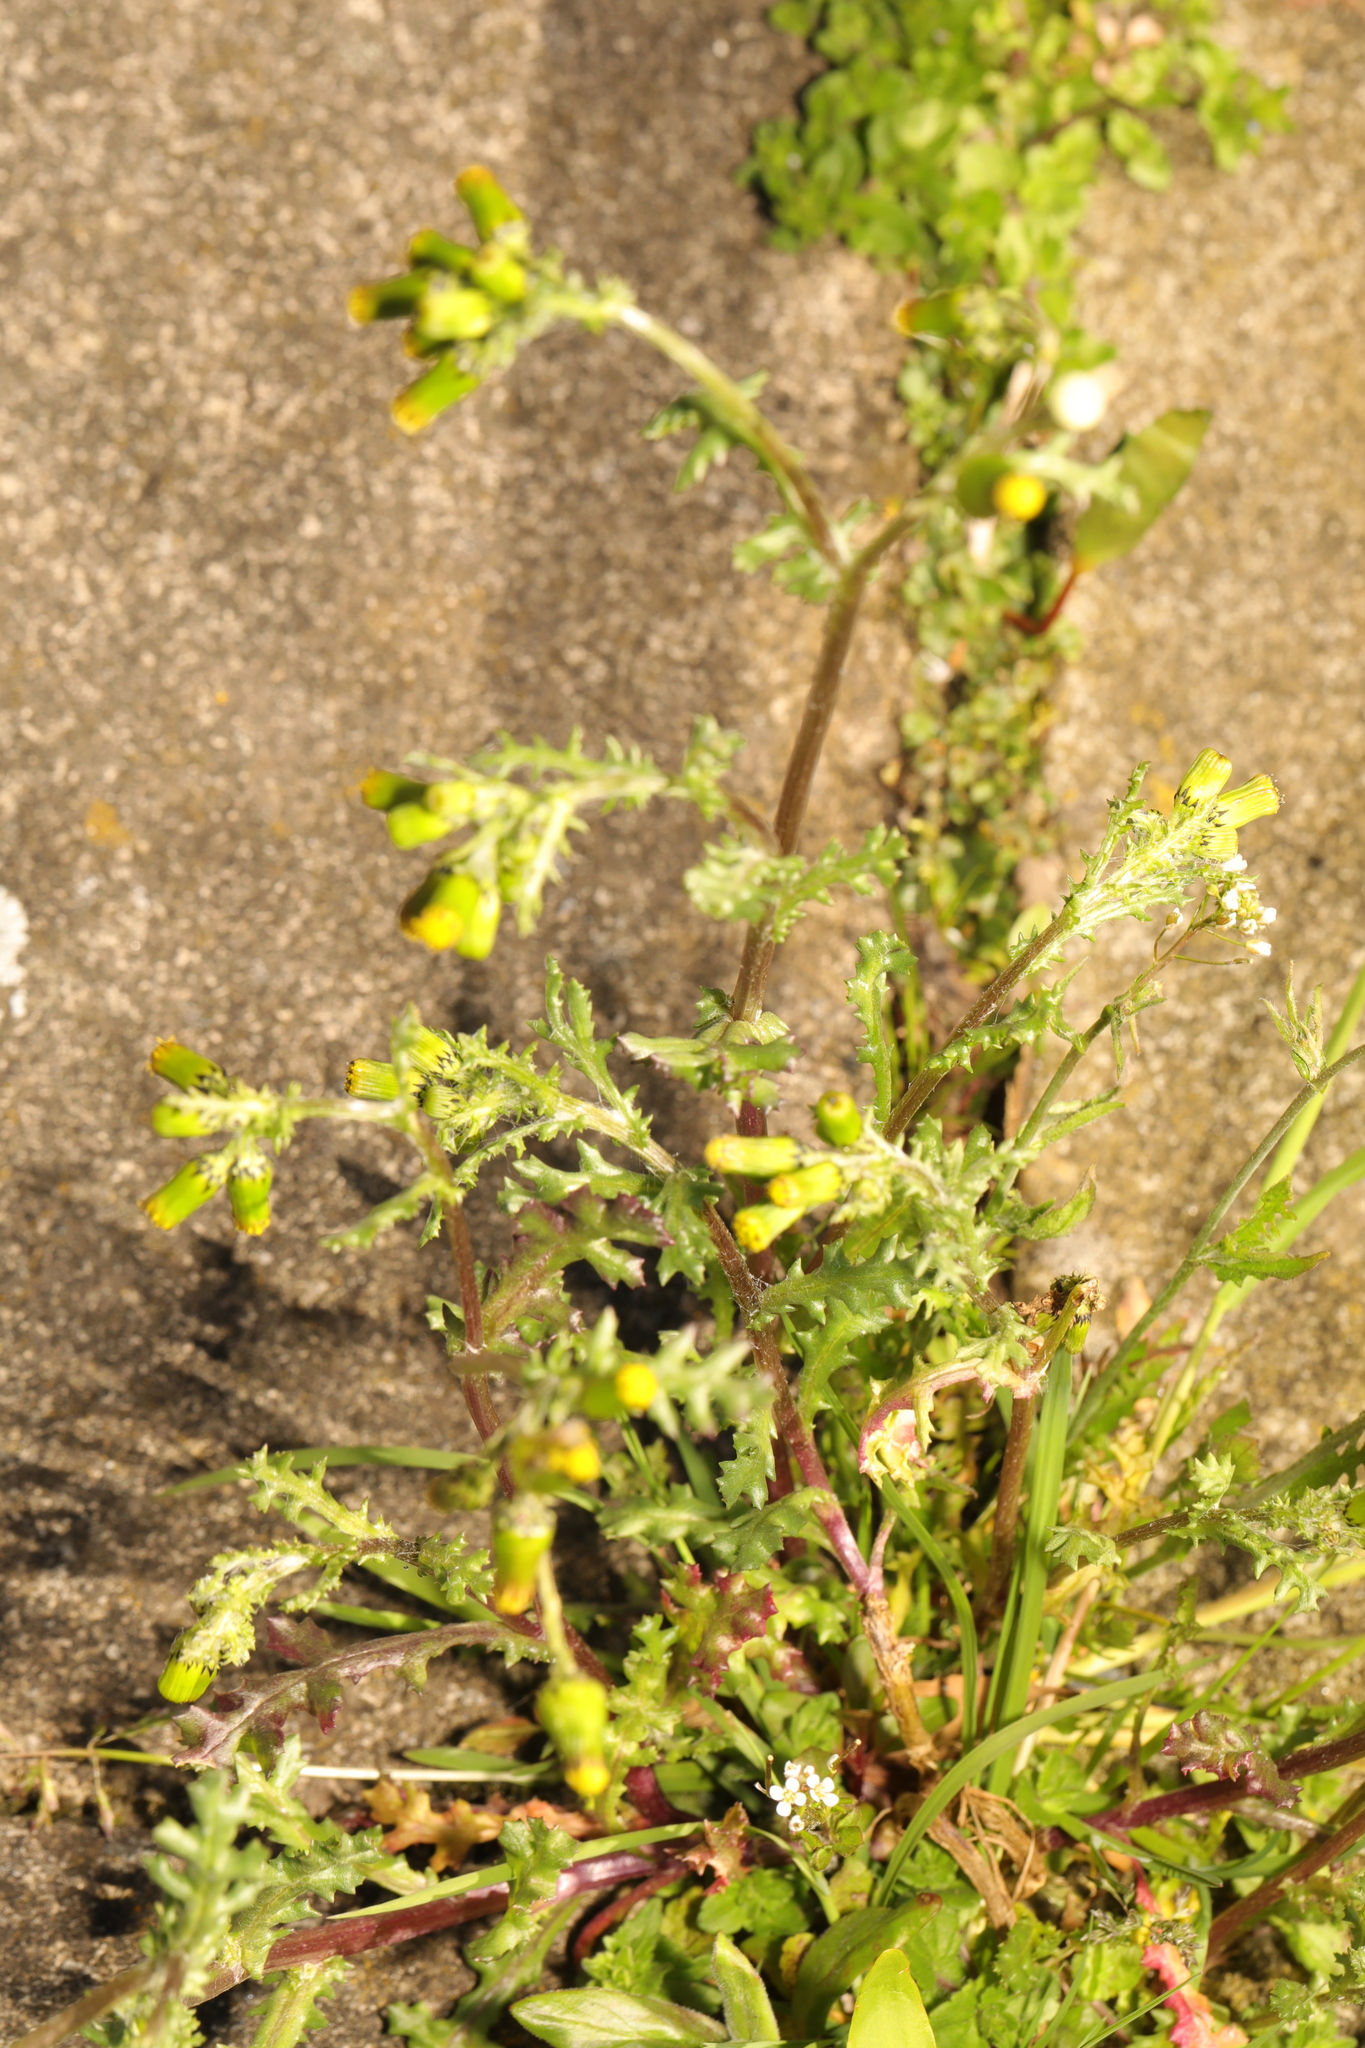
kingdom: Plantae
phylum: Tracheophyta
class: Magnoliopsida
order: Asterales
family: Asteraceae
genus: Senecio
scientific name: Senecio vulgaris
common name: Old-man-in-the-spring
